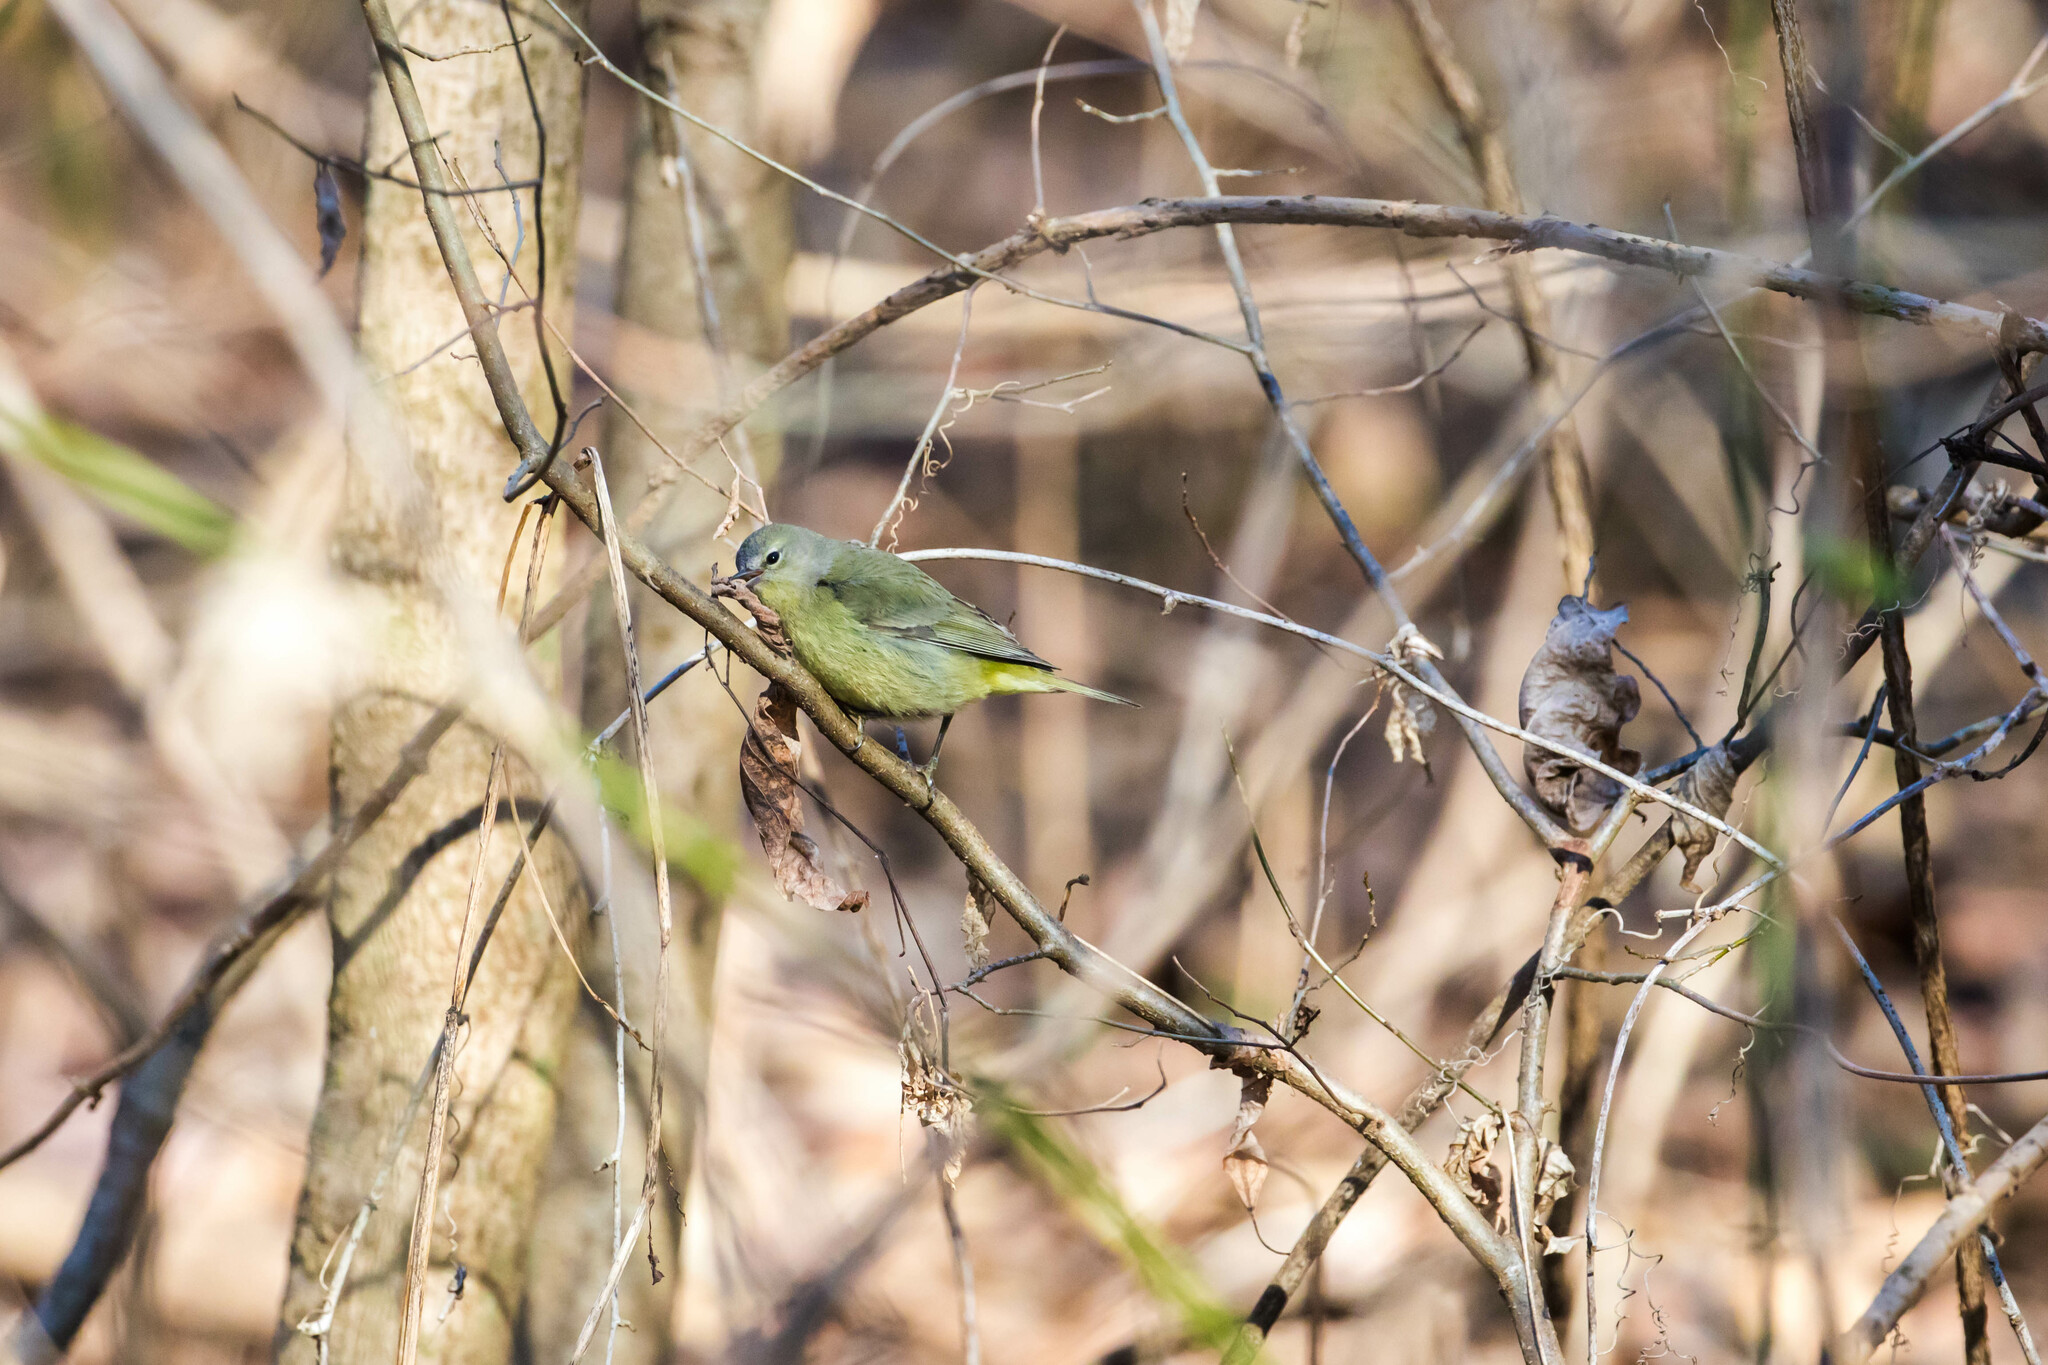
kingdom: Animalia
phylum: Chordata
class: Aves
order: Passeriformes
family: Parulidae
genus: Leiothlypis
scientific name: Leiothlypis celata
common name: Orange-crowned warbler
